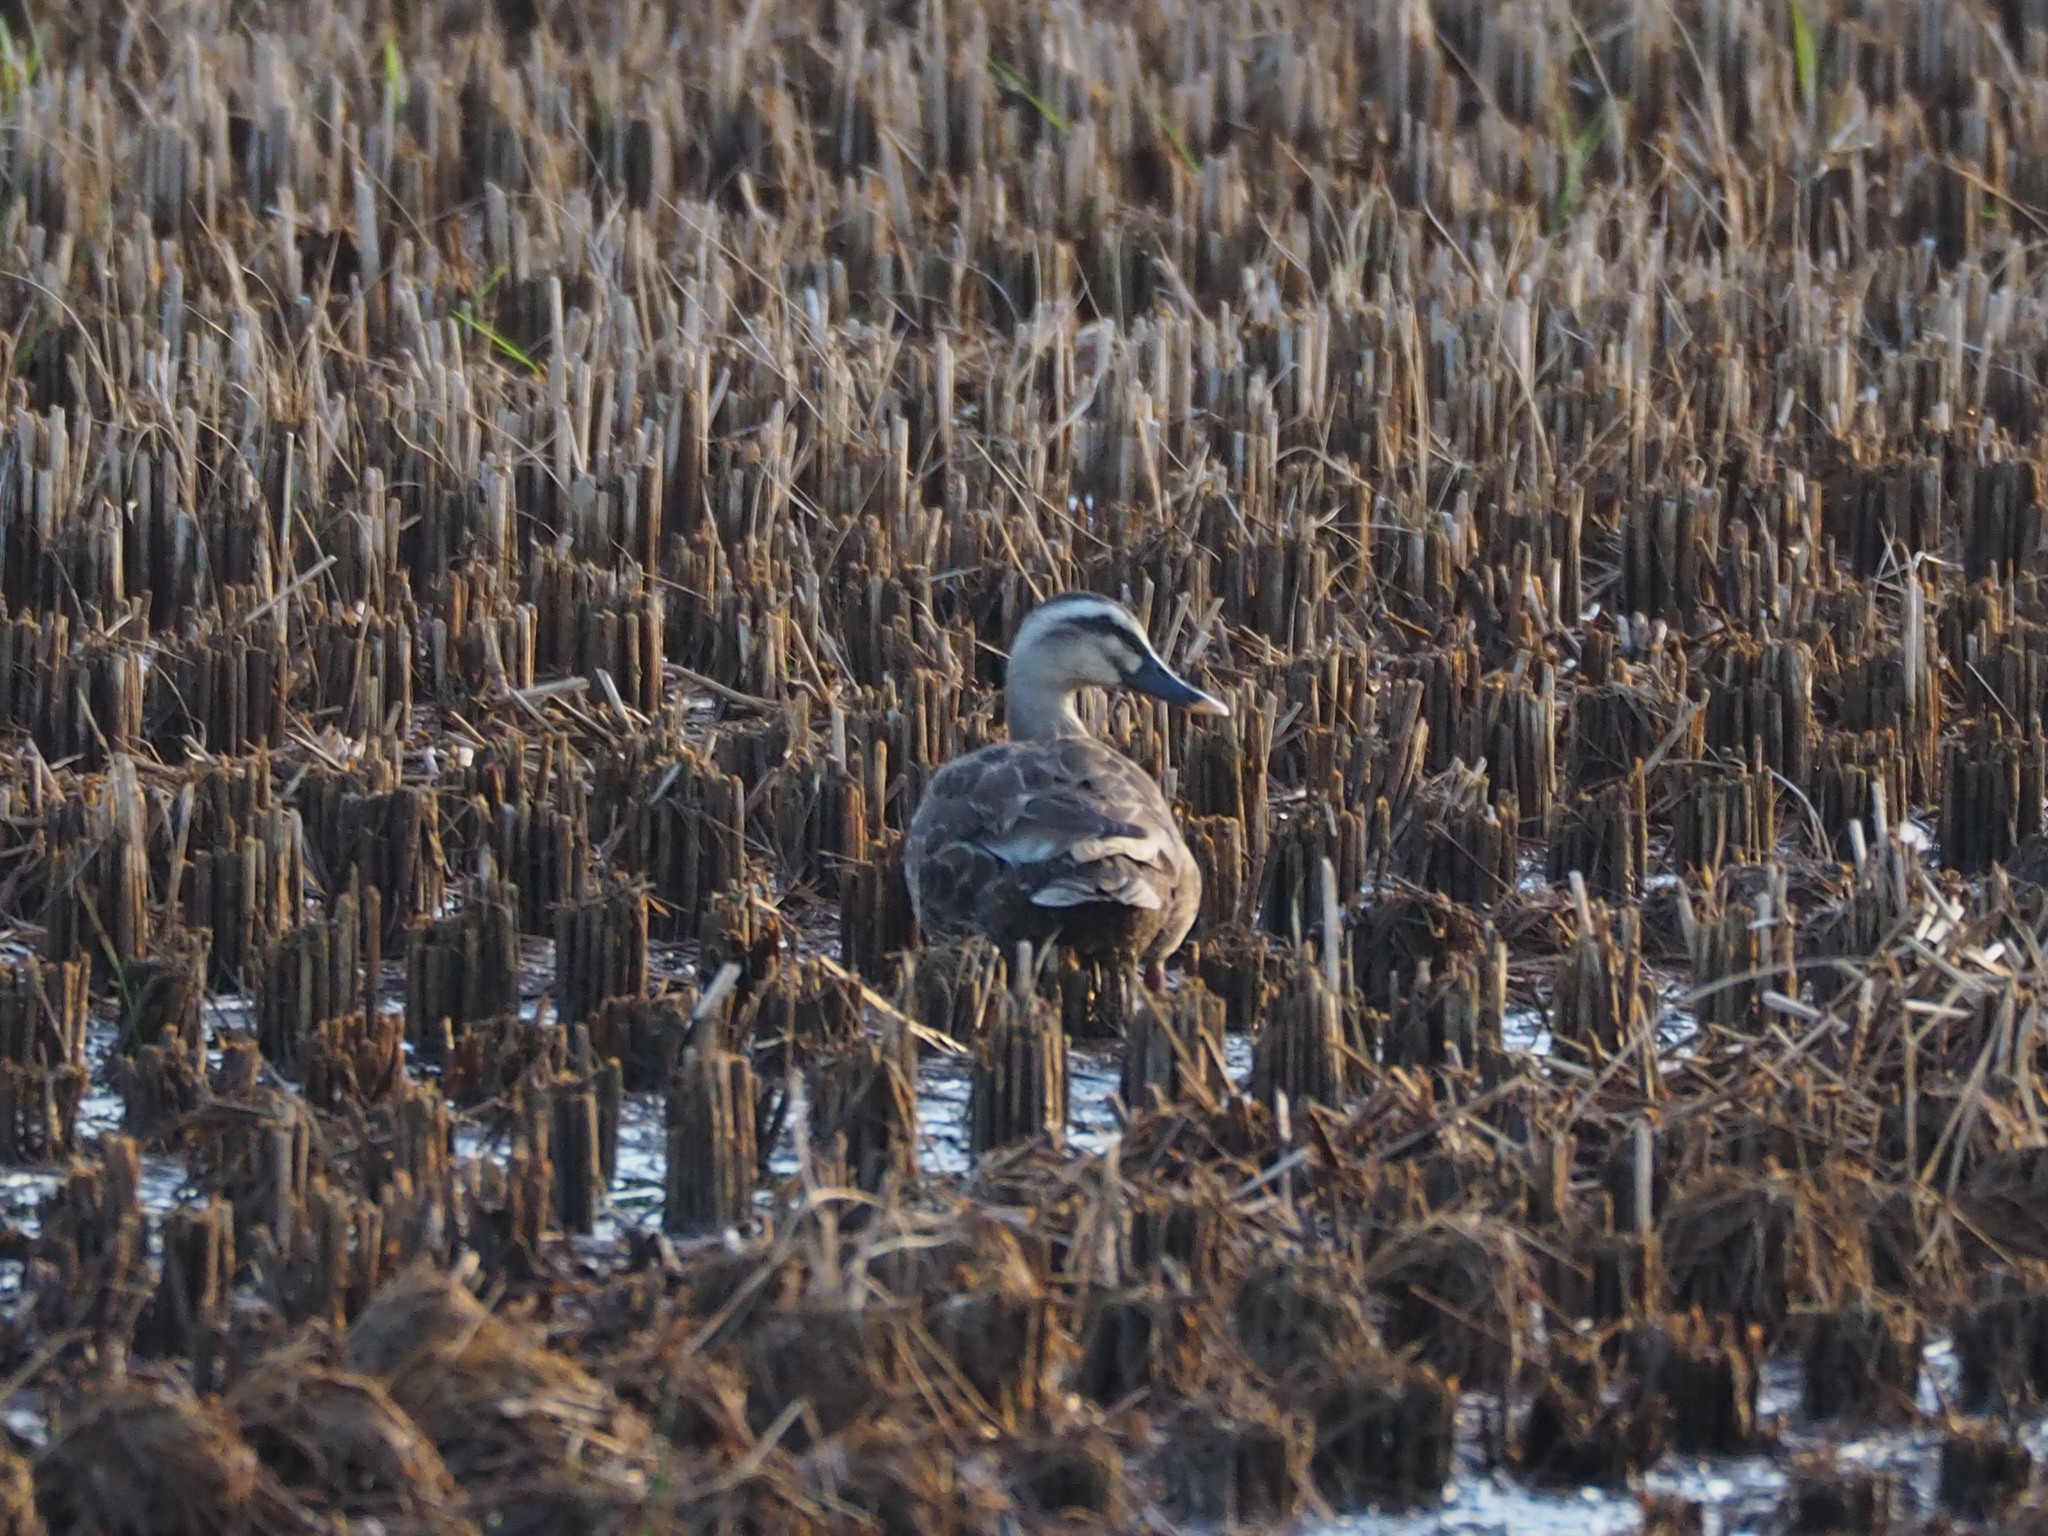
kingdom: Animalia
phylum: Chordata
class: Aves
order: Anseriformes
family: Anatidae
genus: Anas
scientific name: Anas zonorhyncha
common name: Eastern spot-billed duck
